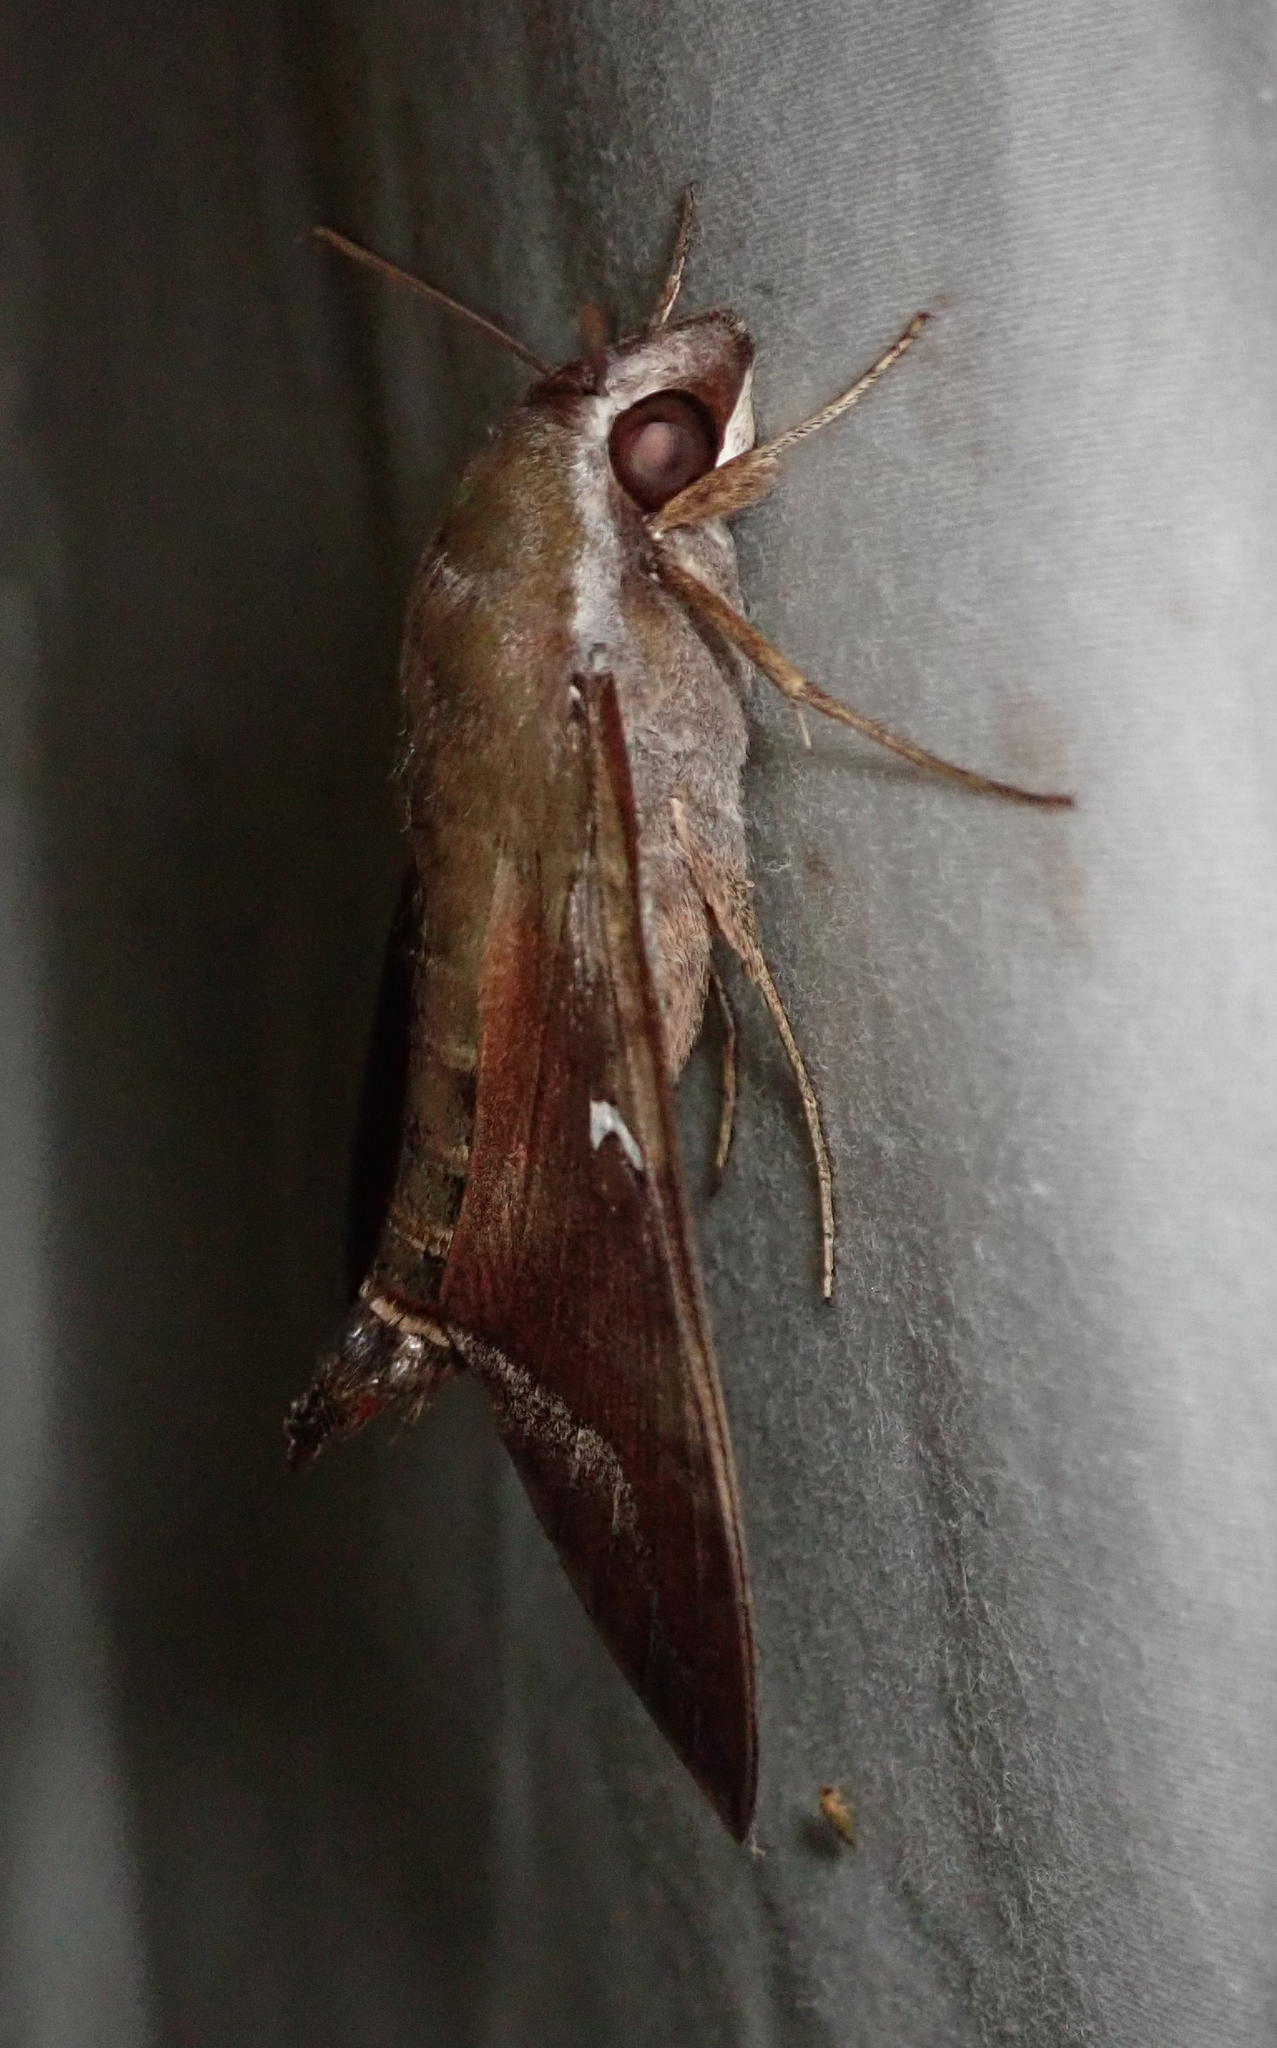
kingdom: Animalia
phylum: Arthropoda
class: Insecta
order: Lepidoptera
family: Sphingidae
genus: Nephele
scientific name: Nephele comma
